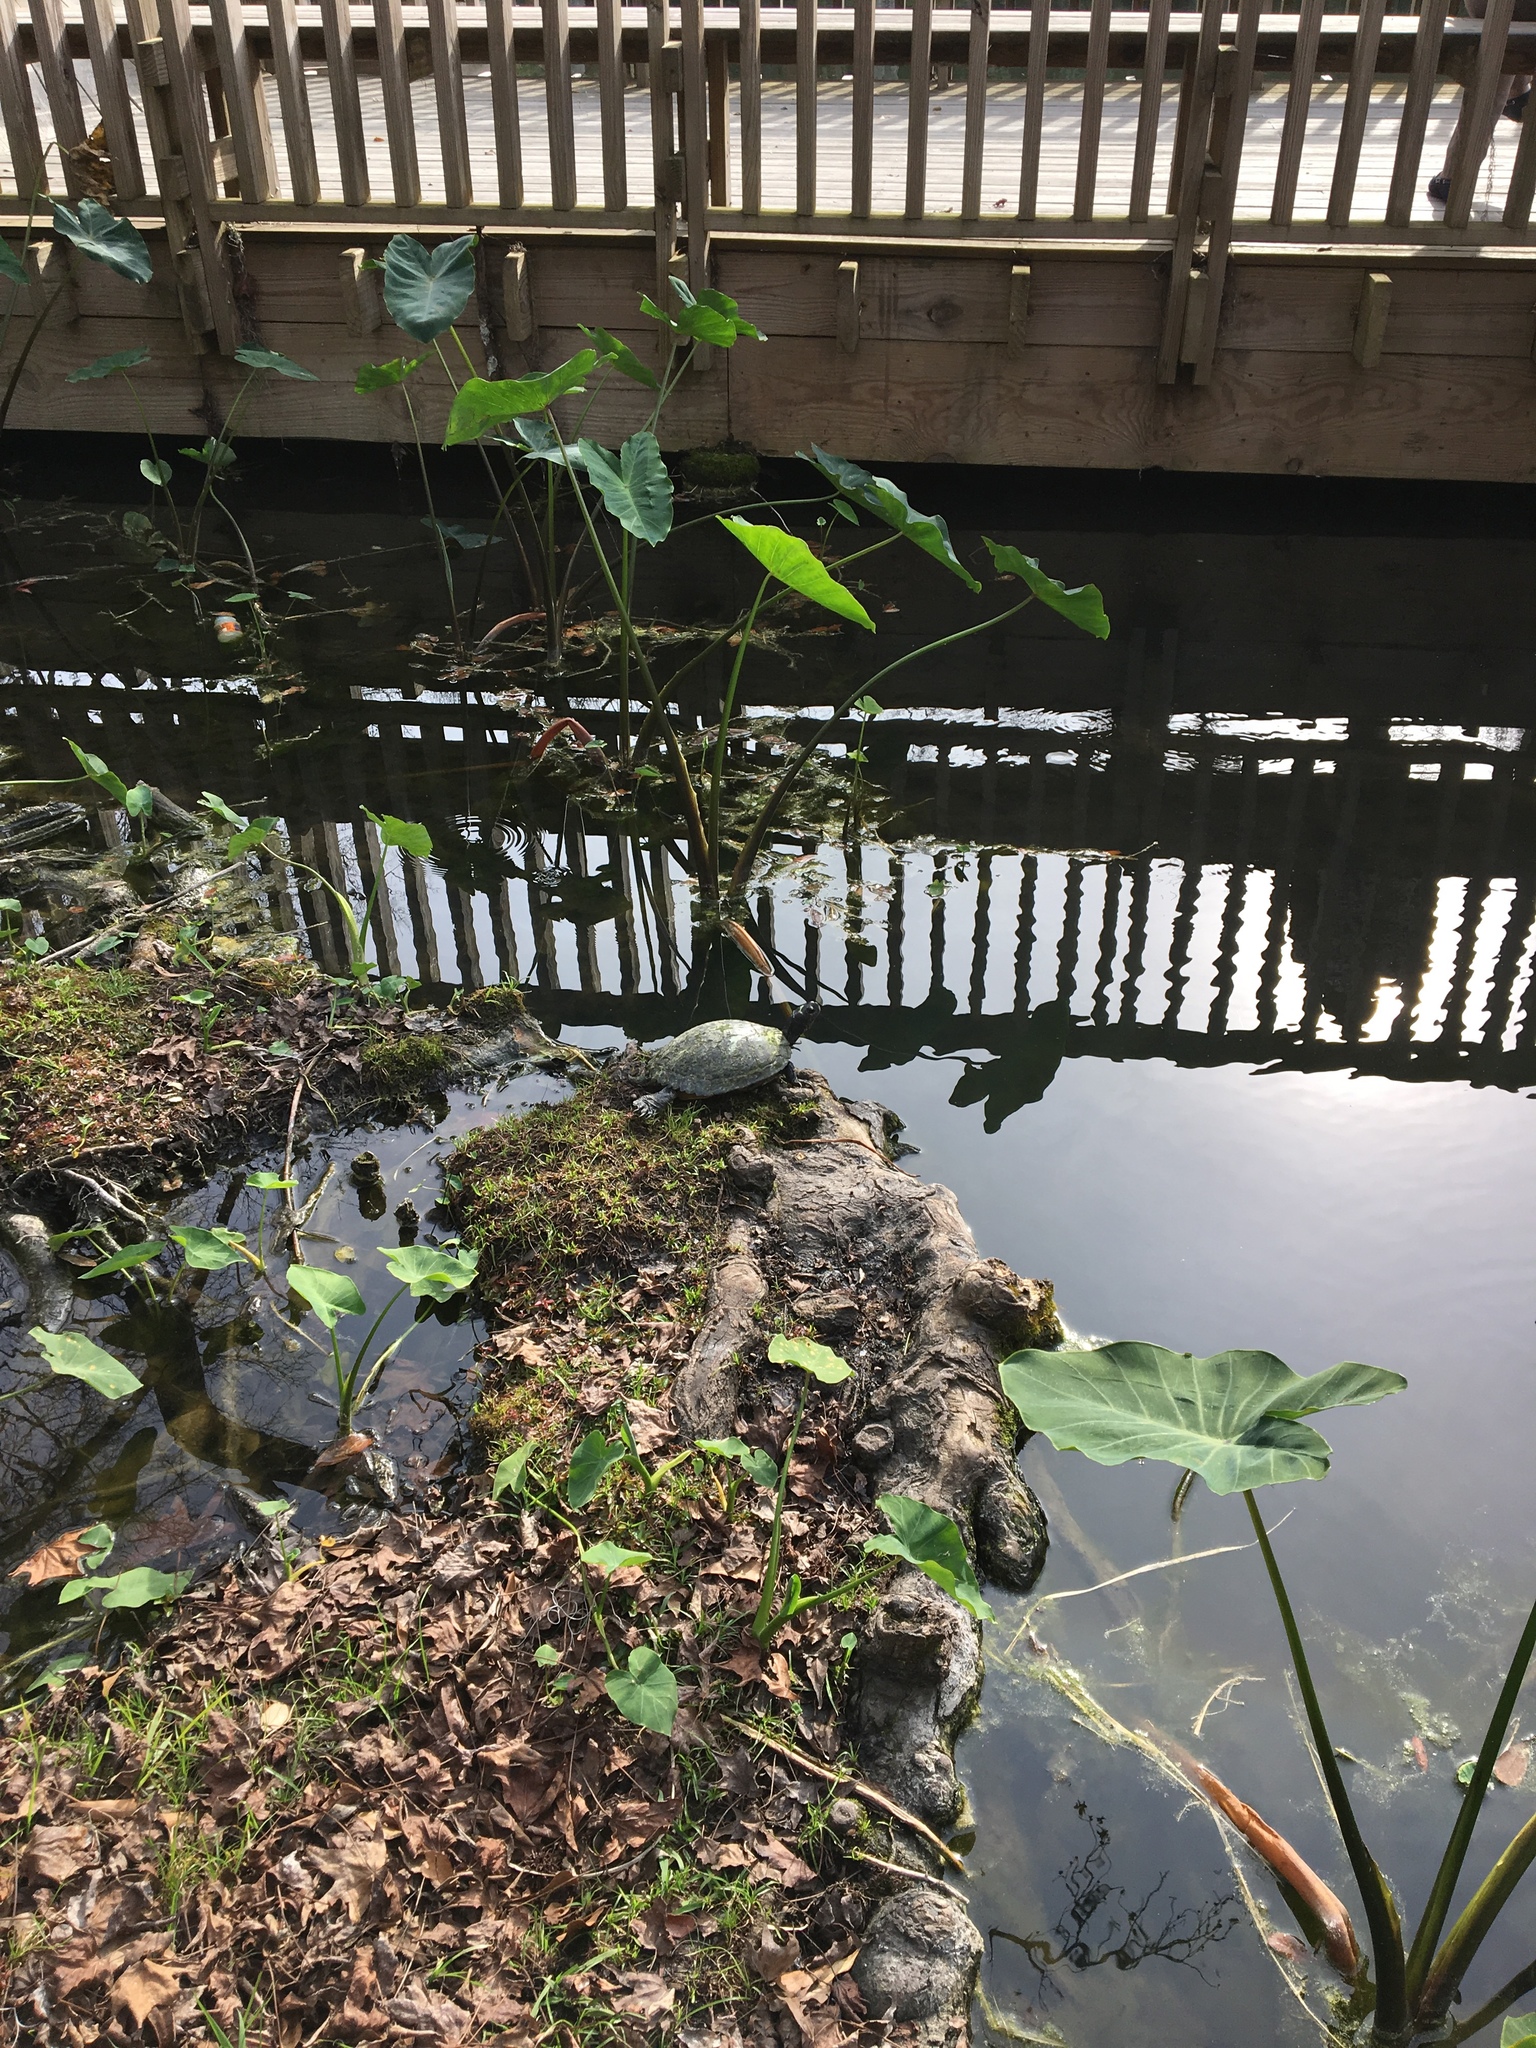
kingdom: Animalia
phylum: Chordata
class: Testudines
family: Emydidae
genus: Trachemys
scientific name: Trachemys scripta
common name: Slider
